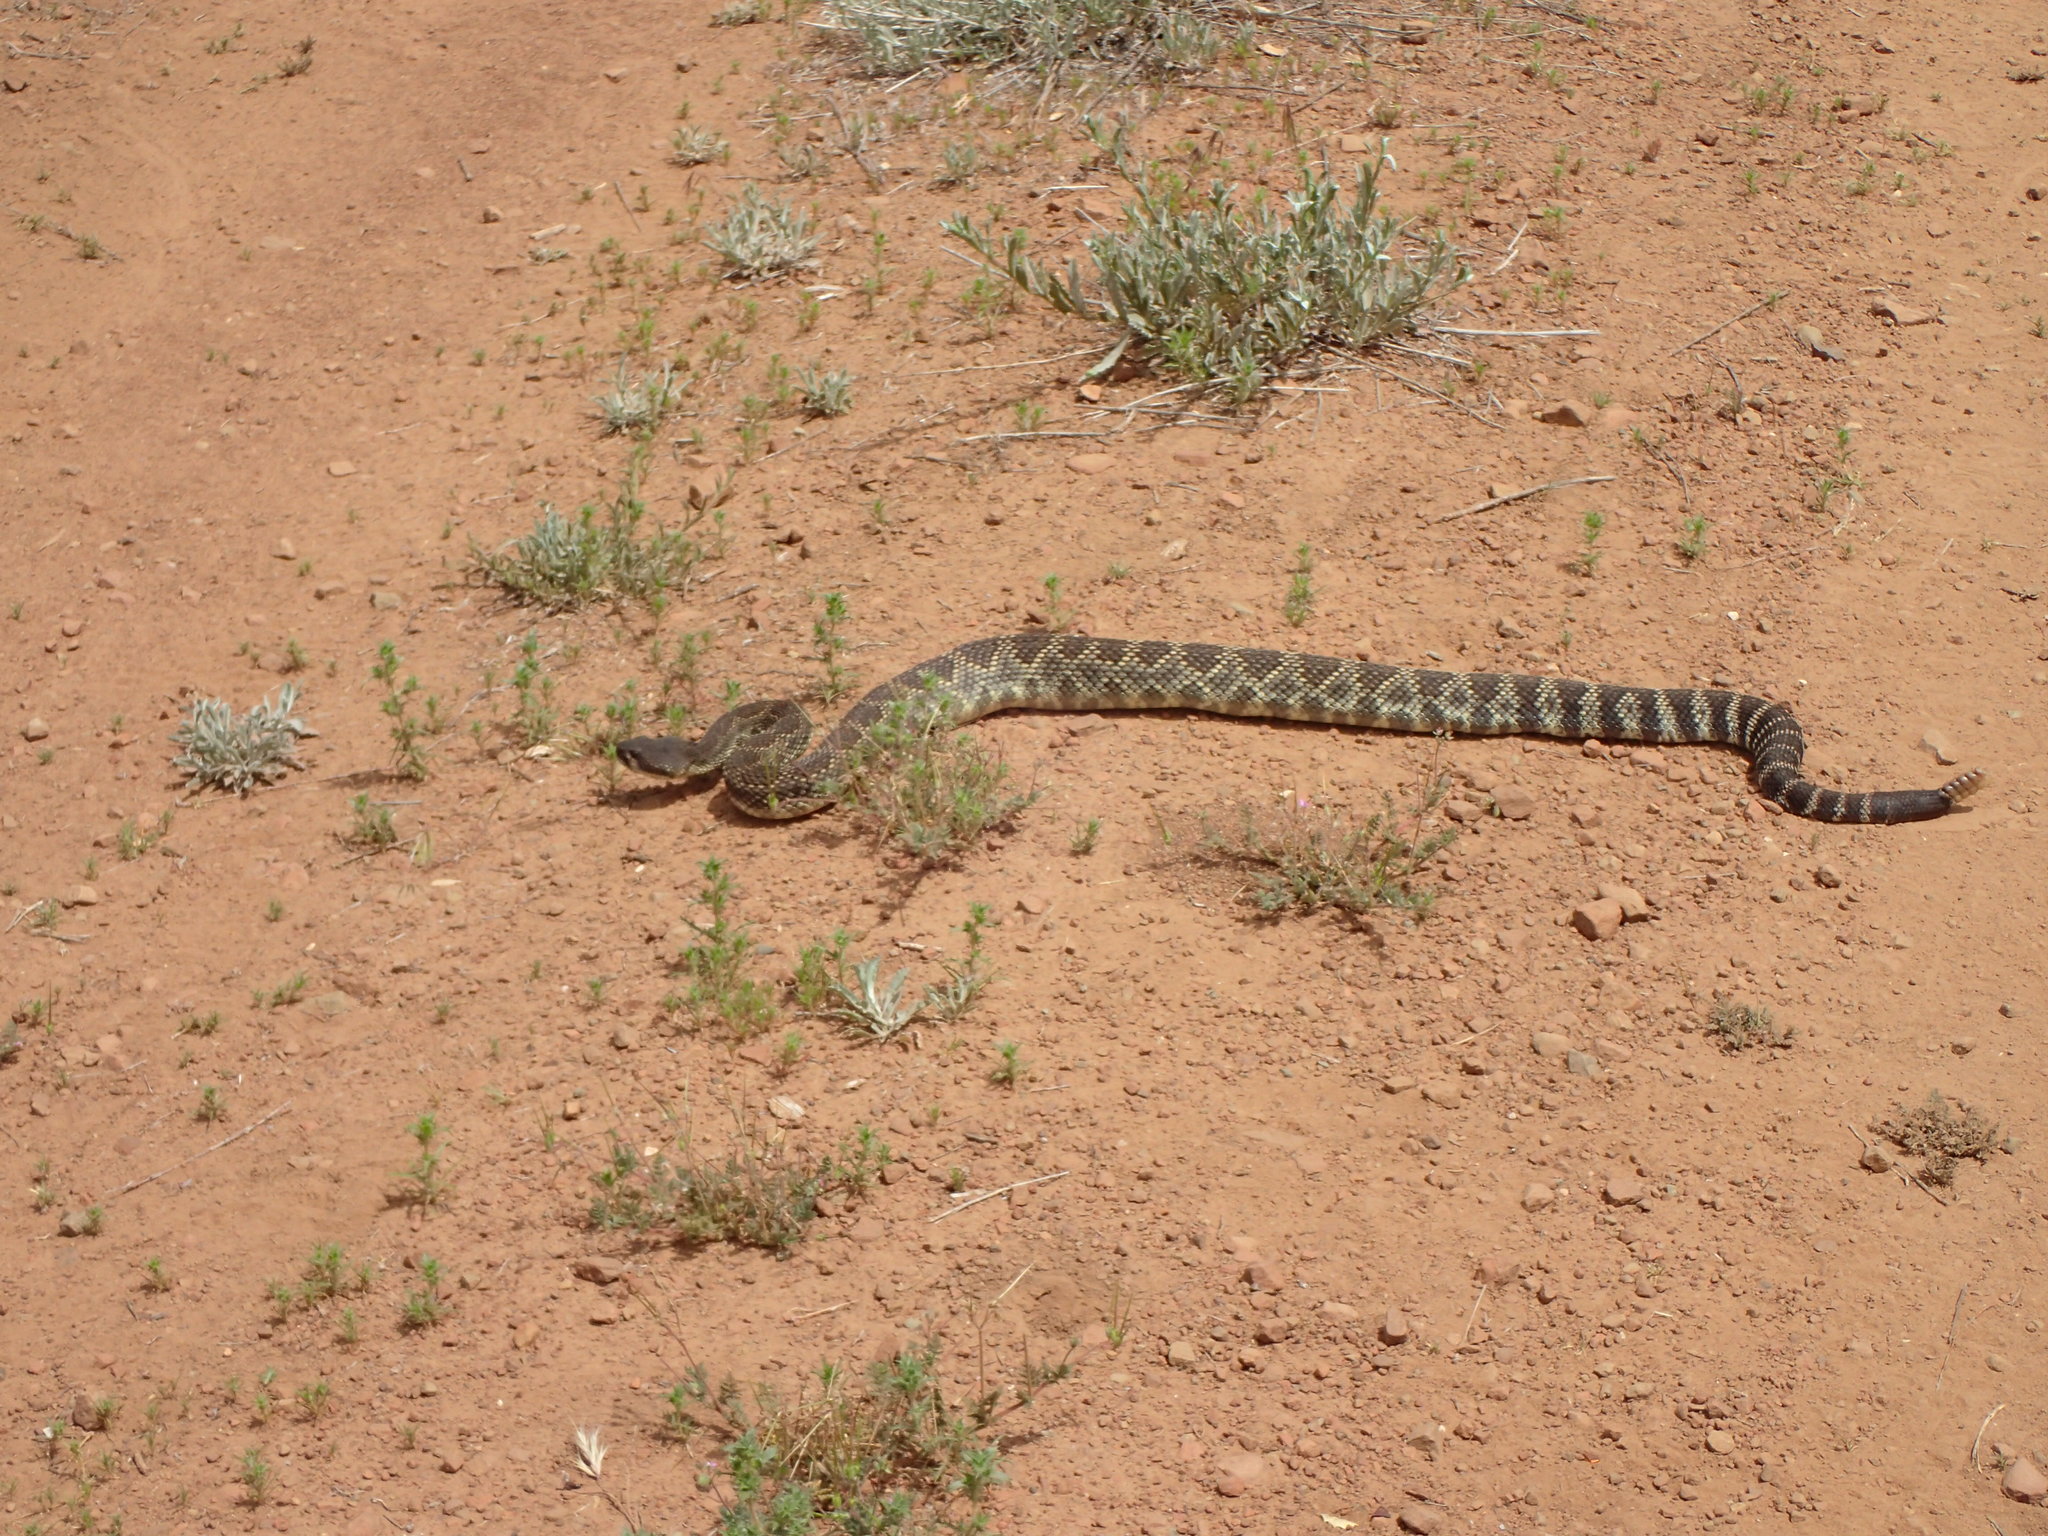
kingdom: Animalia
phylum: Chordata
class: Squamata
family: Viperidae
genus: Crotalus
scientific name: Crotalus oreganus
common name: Abyssus
